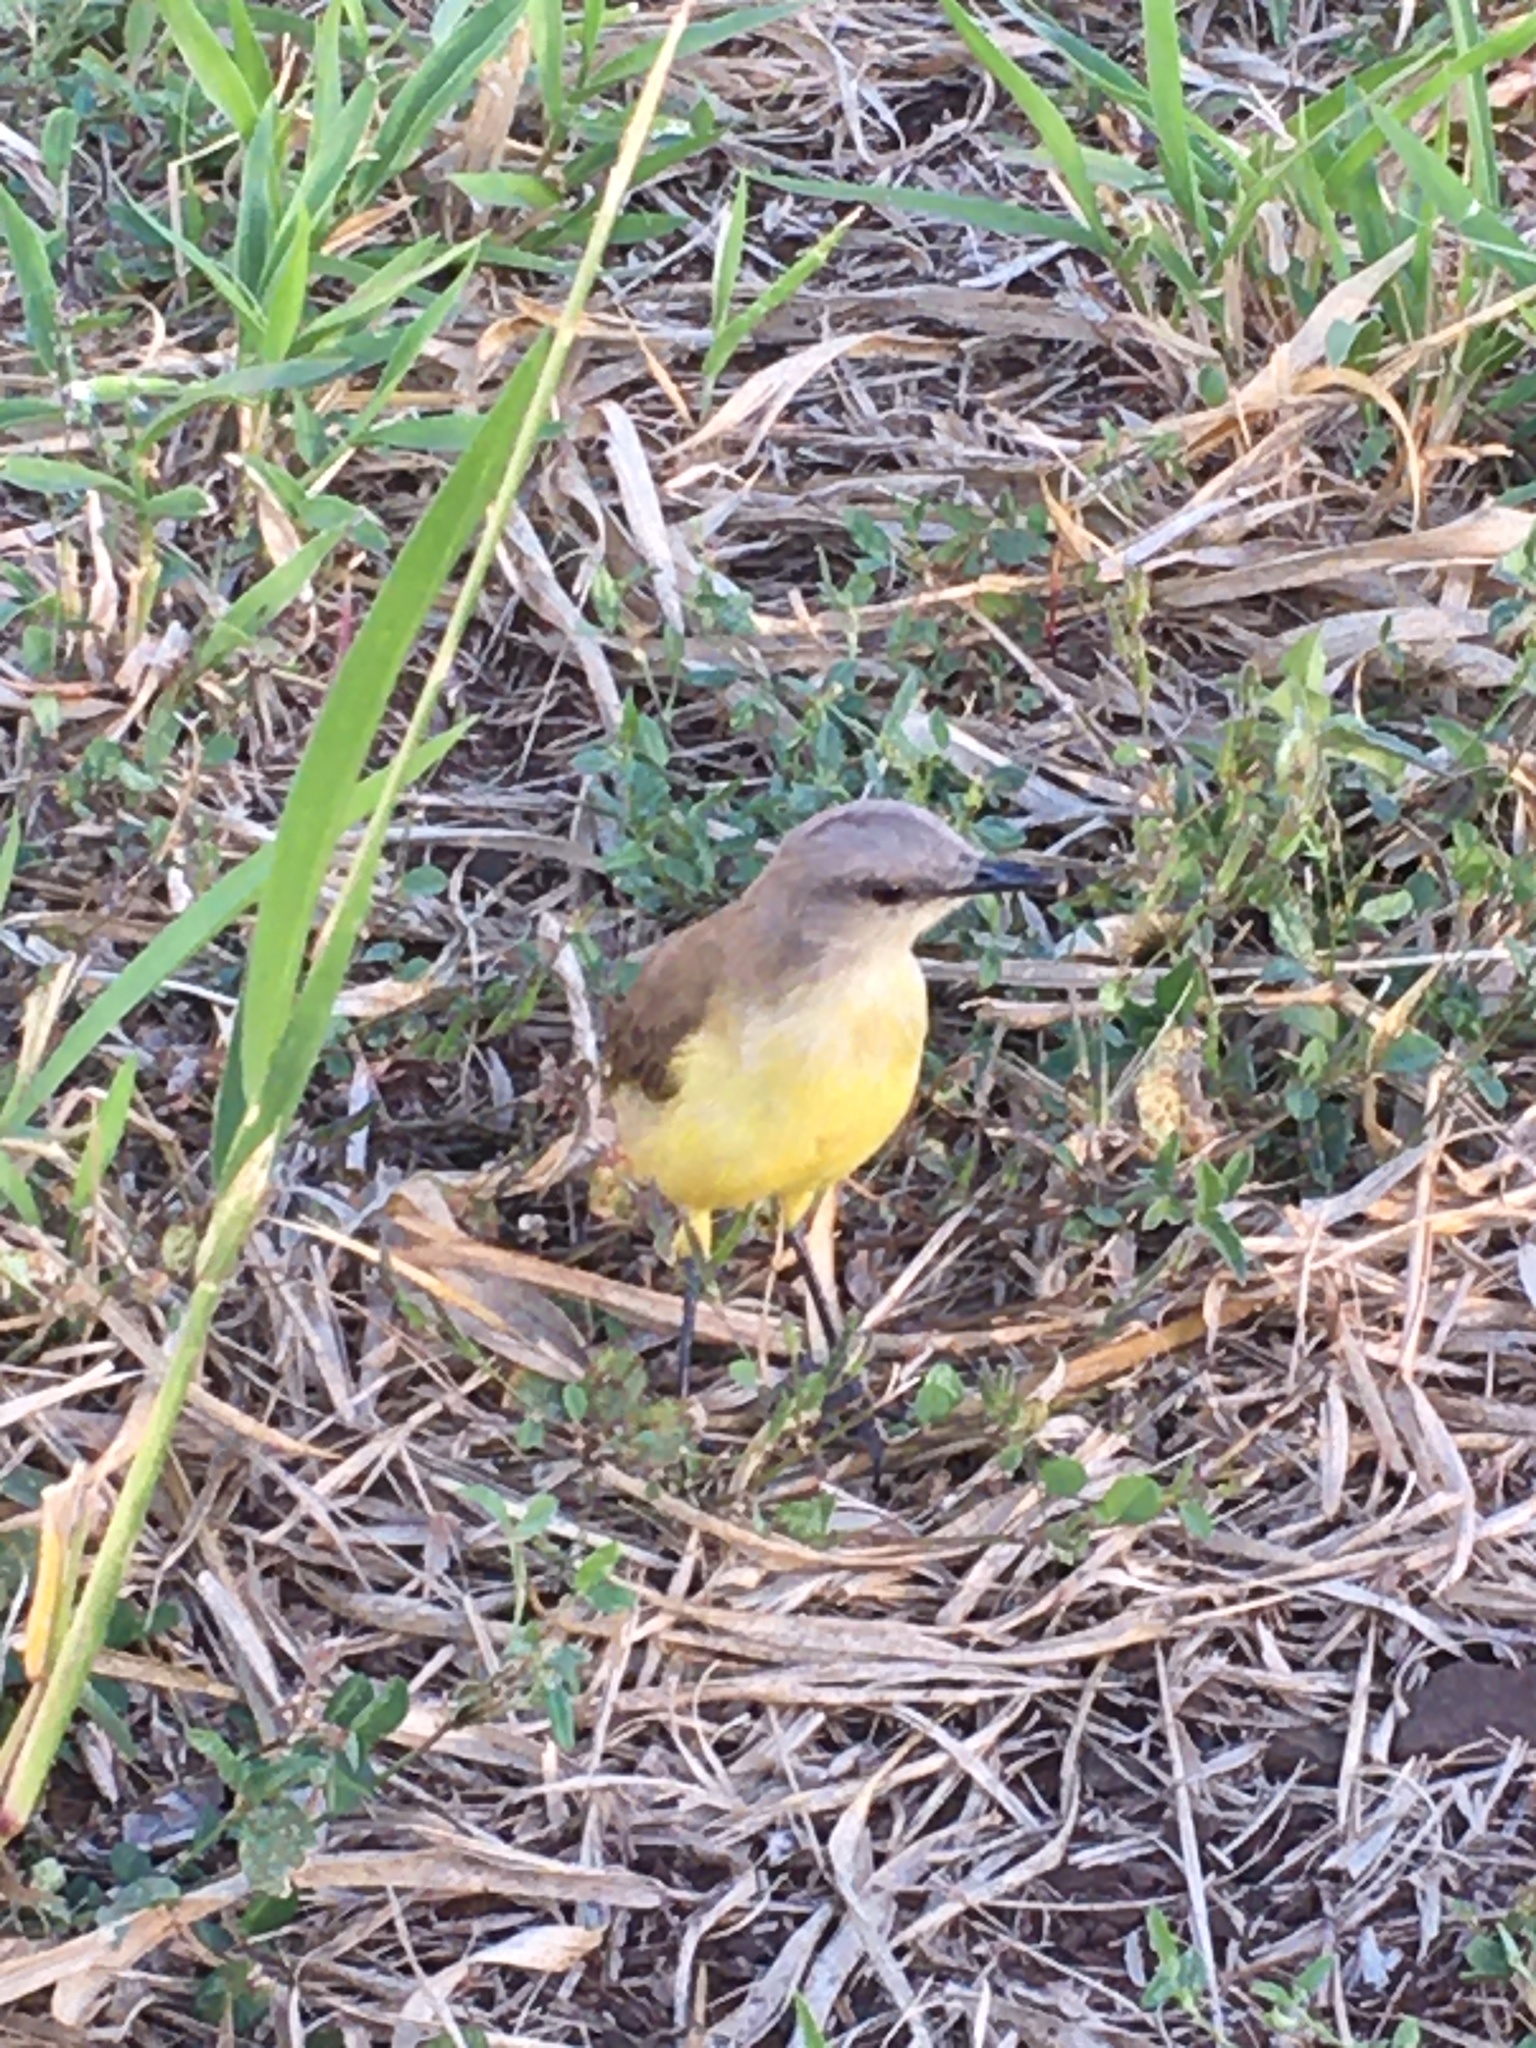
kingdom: Animalia
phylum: Chordata
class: Aves
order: Passeriformes
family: Tyrannidae
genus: Machetornis
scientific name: Machetornis rixosa
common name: Cattle tyrant
